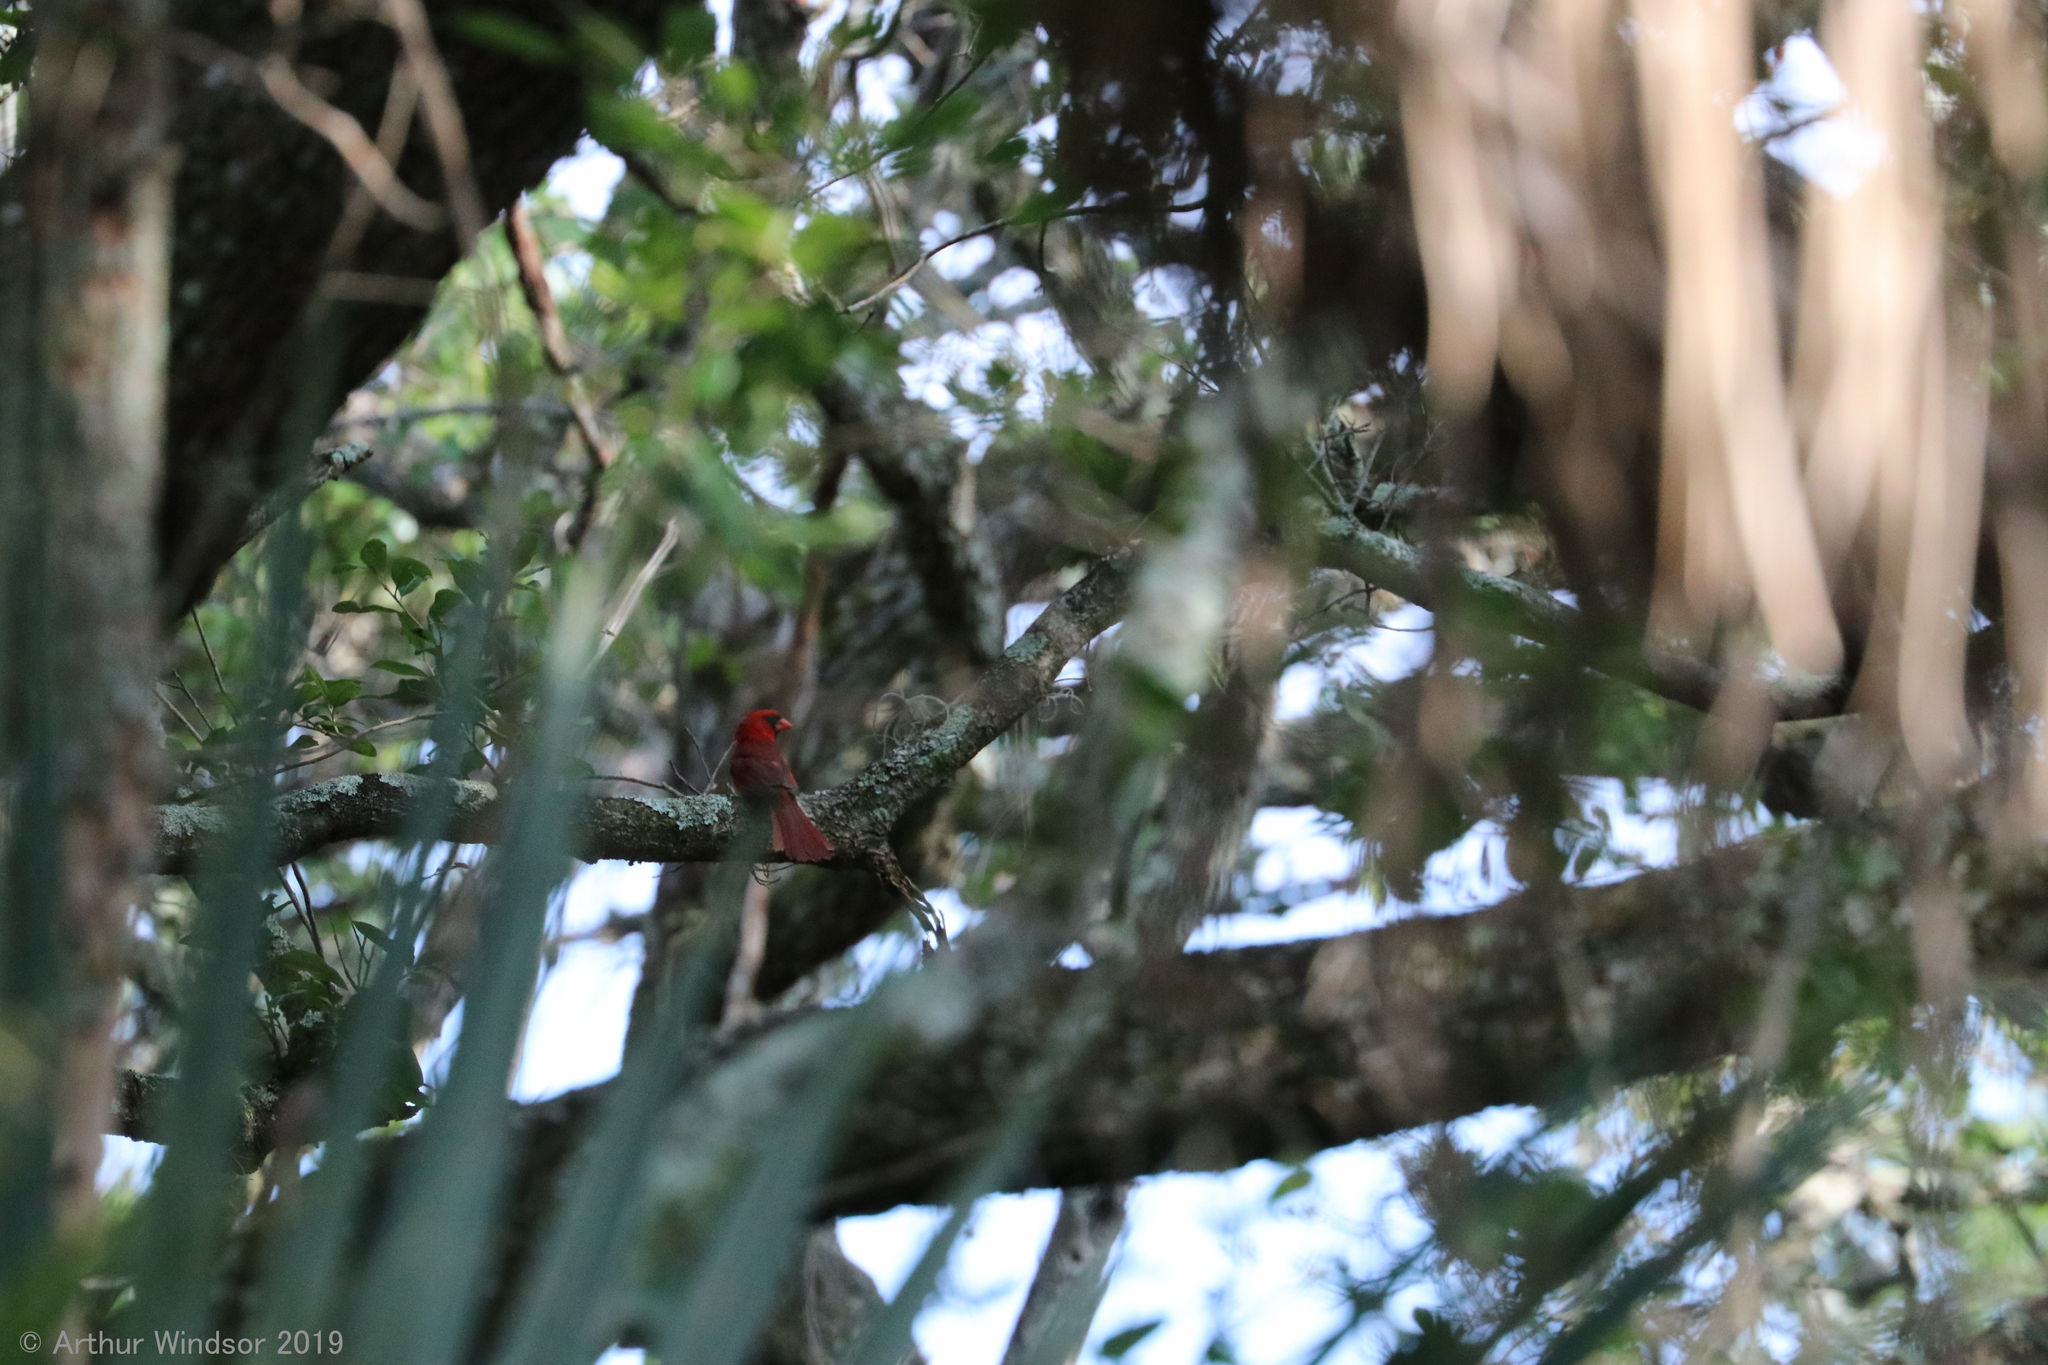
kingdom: Animalia
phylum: Chordata
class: Aves
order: Passeriformes
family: Cardinalidae
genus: Cardinalis
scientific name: Cardinalis cardinalis
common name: Northern cardinal
